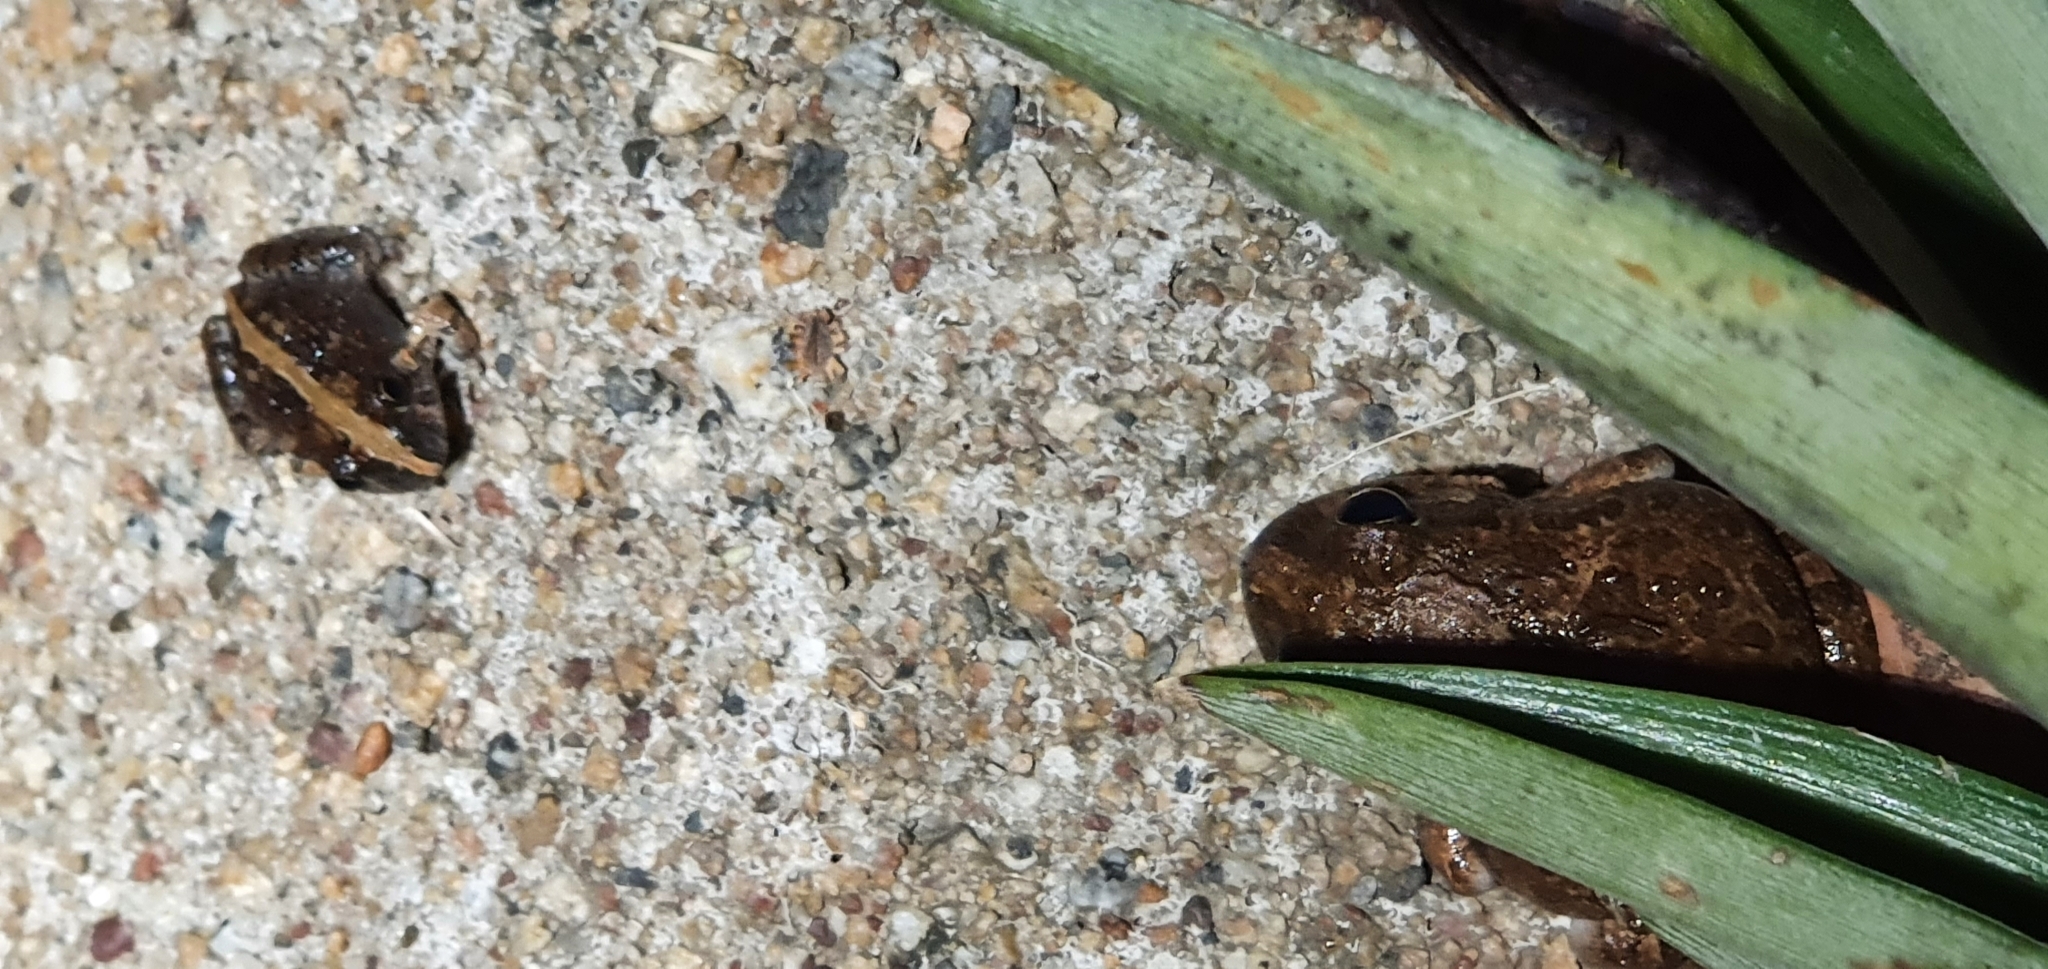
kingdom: Animalia
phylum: Chordata
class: Amphibia
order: Anura
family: Limnodynastidae
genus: Platyplectrum
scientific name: Platyplectrum ornatum
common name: Ornate burrowing frog
